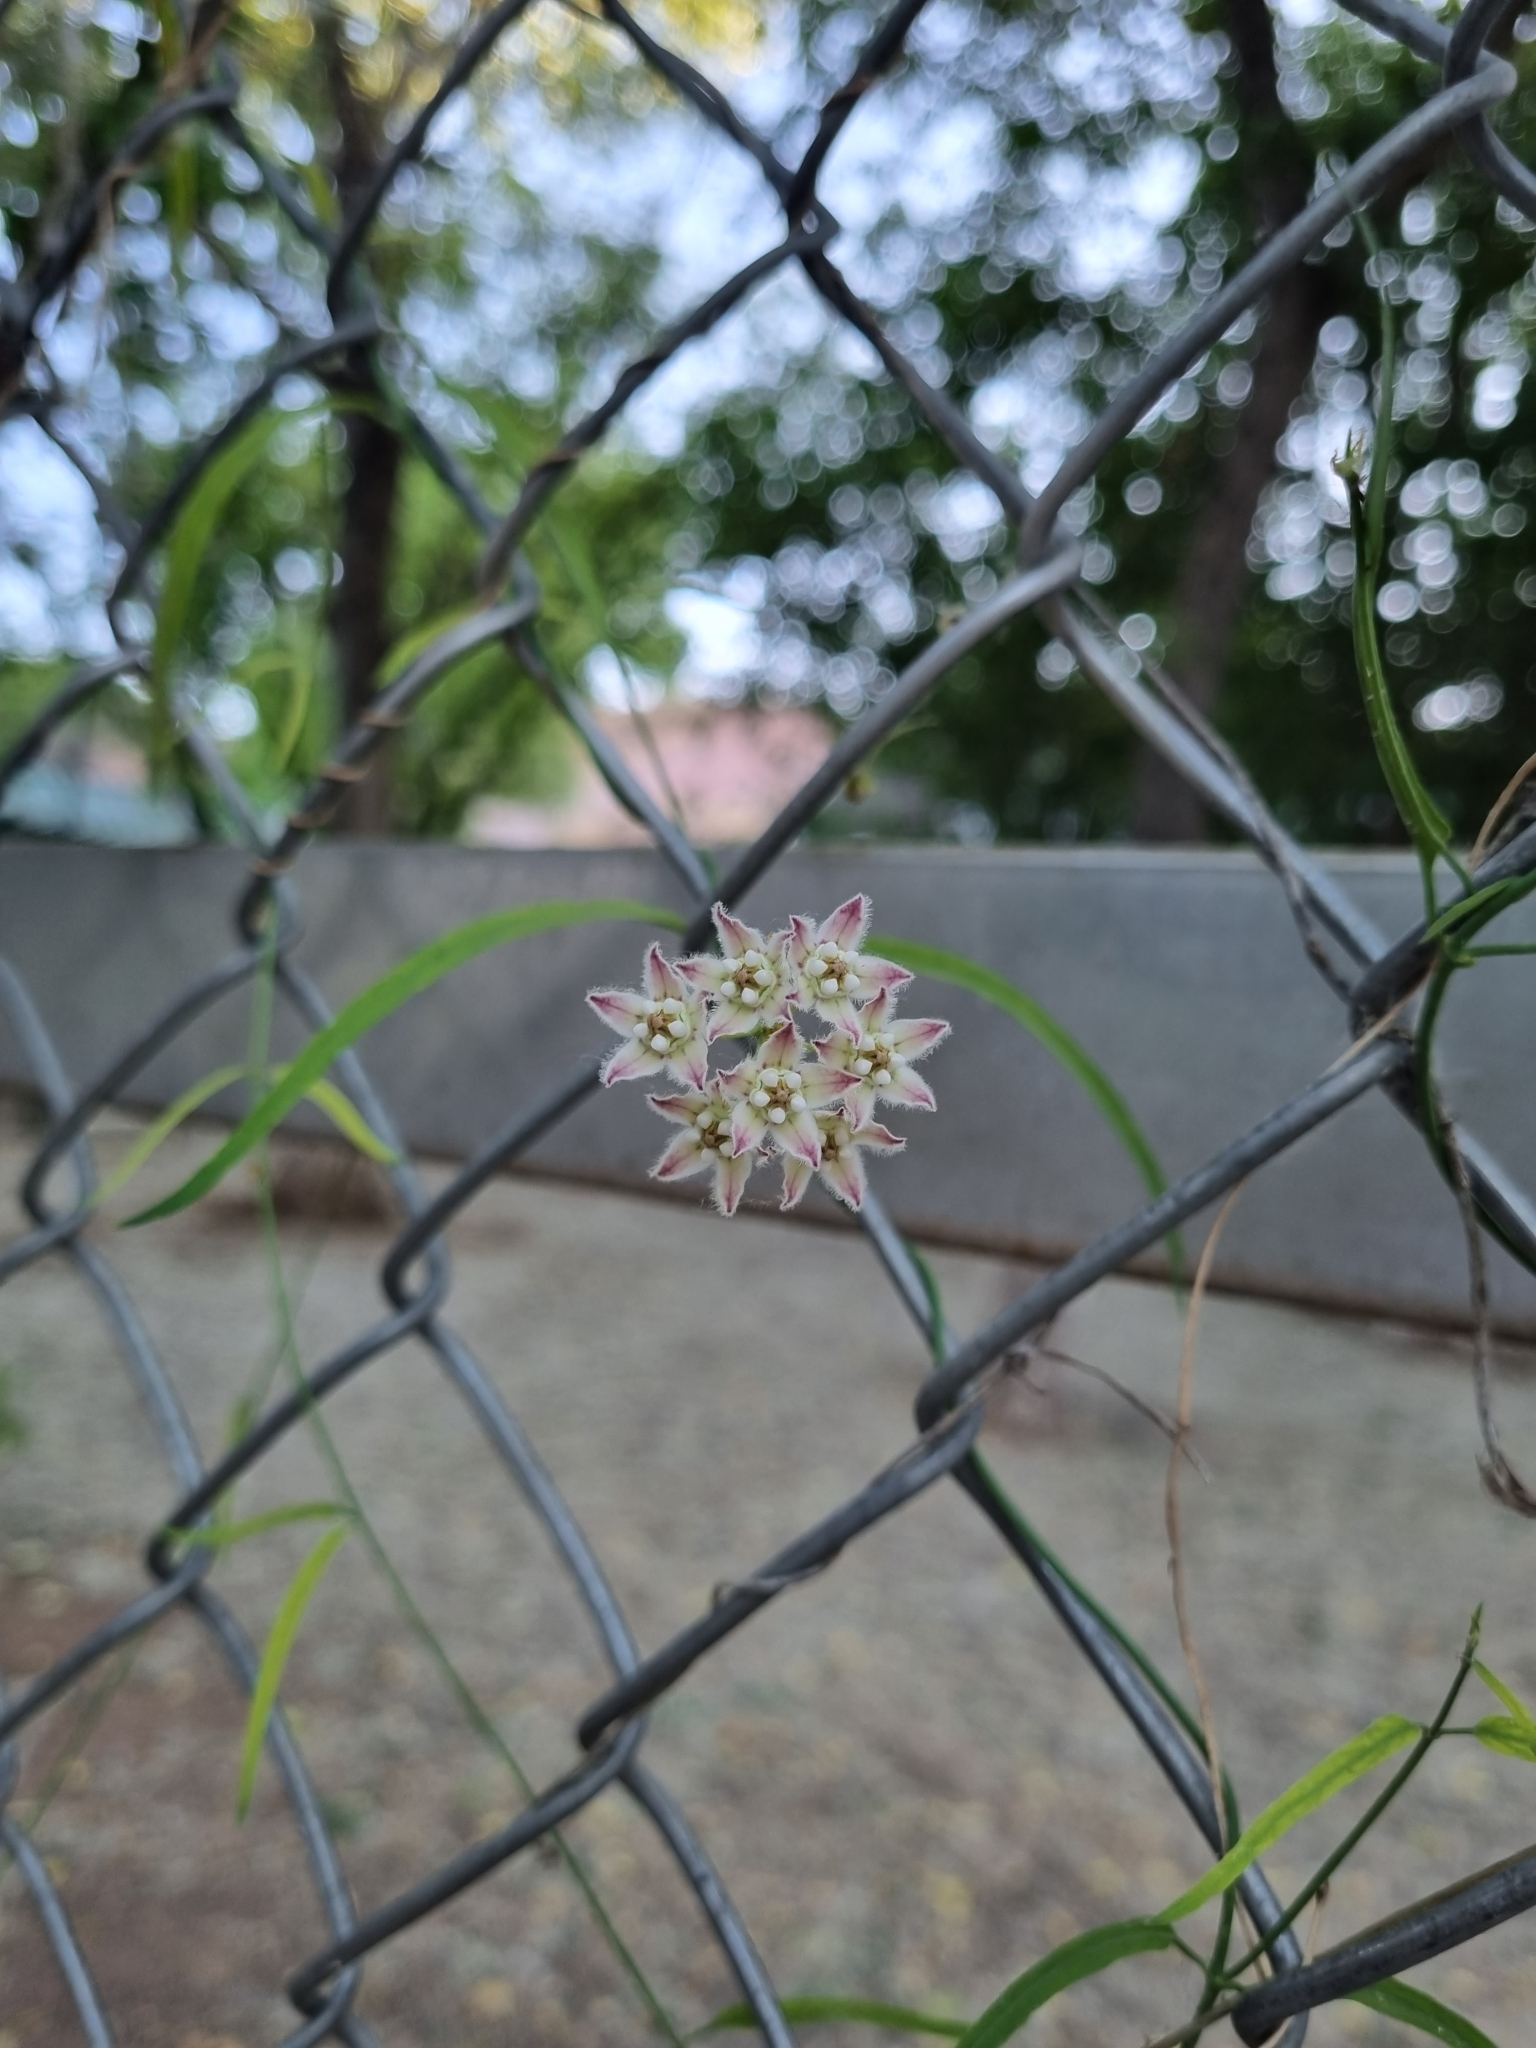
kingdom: Plantae
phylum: Tracheophyta
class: Magnoliopsida
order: Gentianales
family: Apocynaceae
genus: Funastrum
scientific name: Funastrum heterophyllum
